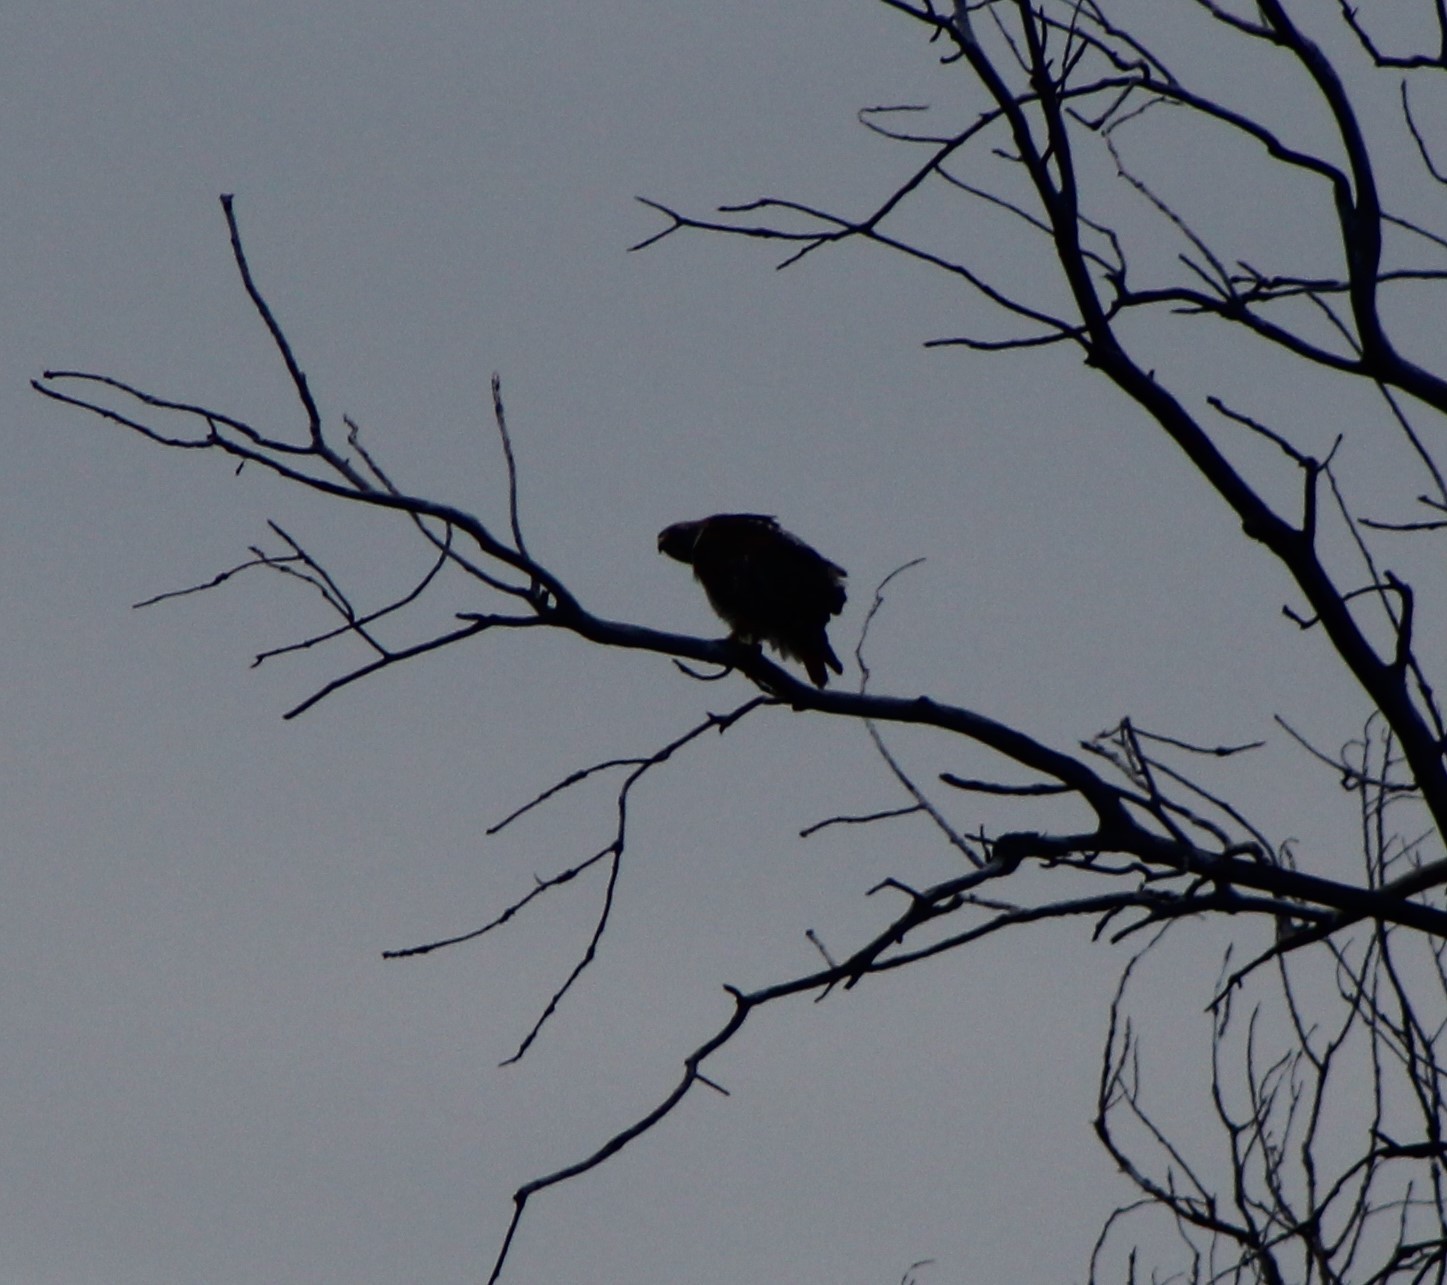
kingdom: Animalia
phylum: Chordata
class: Aves
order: Accipitriformes
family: Accipitridae
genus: Buteo
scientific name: Buteo jamaicensis
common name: Red-tailed hawk
